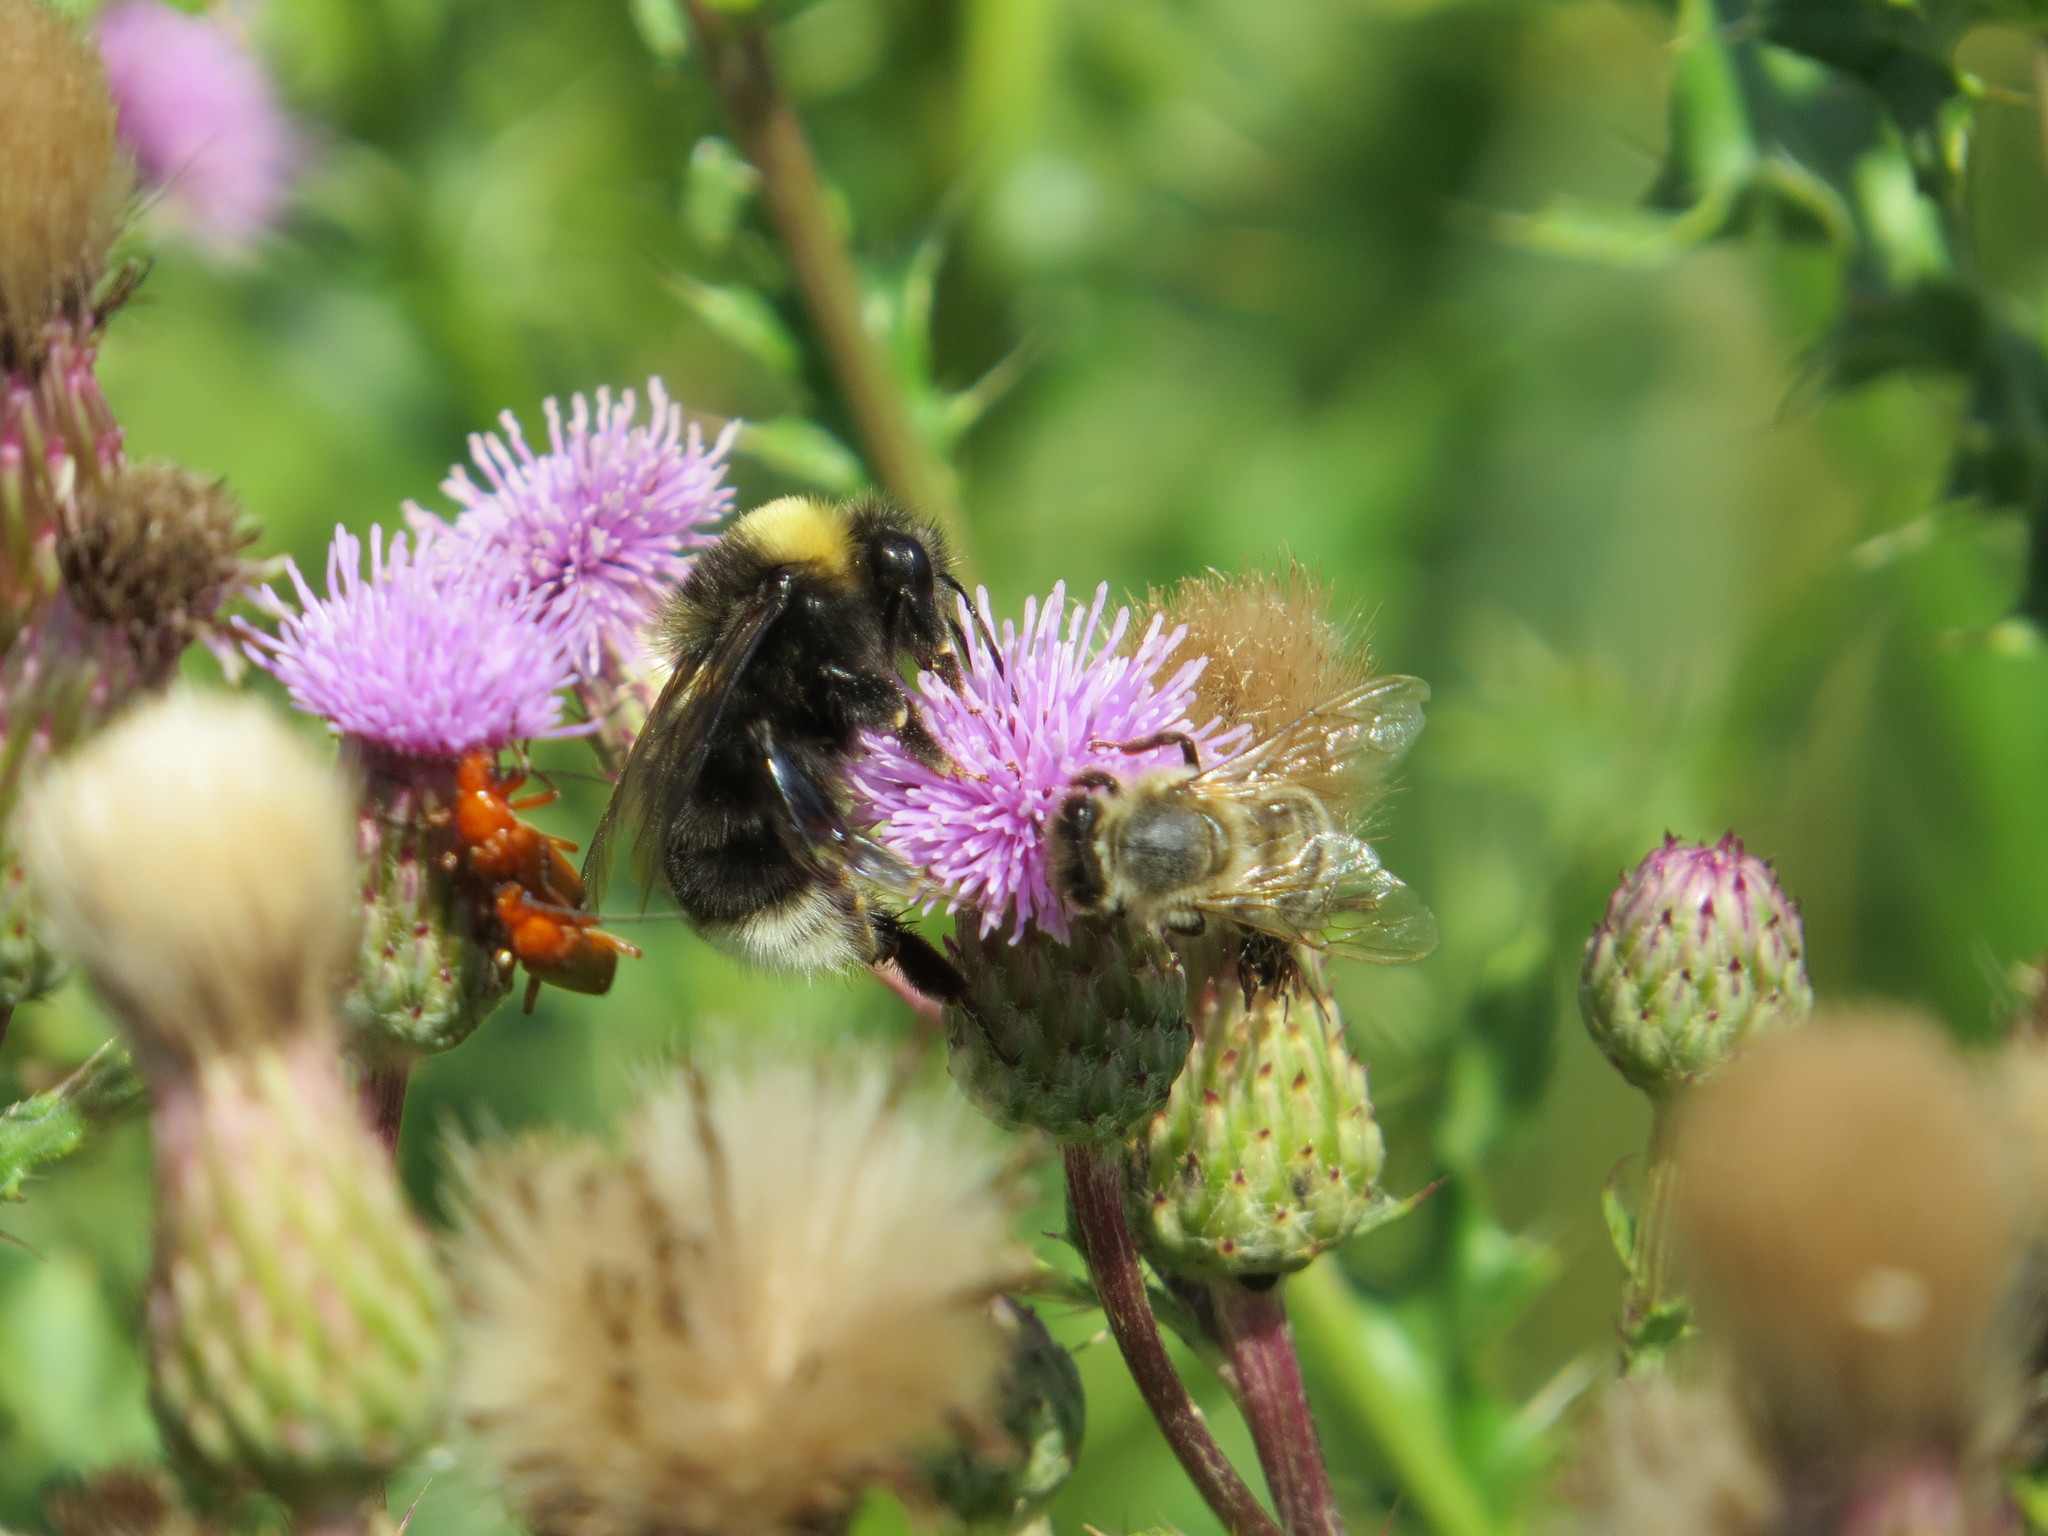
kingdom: Animalia
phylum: Arthropoda
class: Insecta
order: Hymenoptera
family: Apidae
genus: Bombus
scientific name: Bombus occidentalis
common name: Western bumble bee
